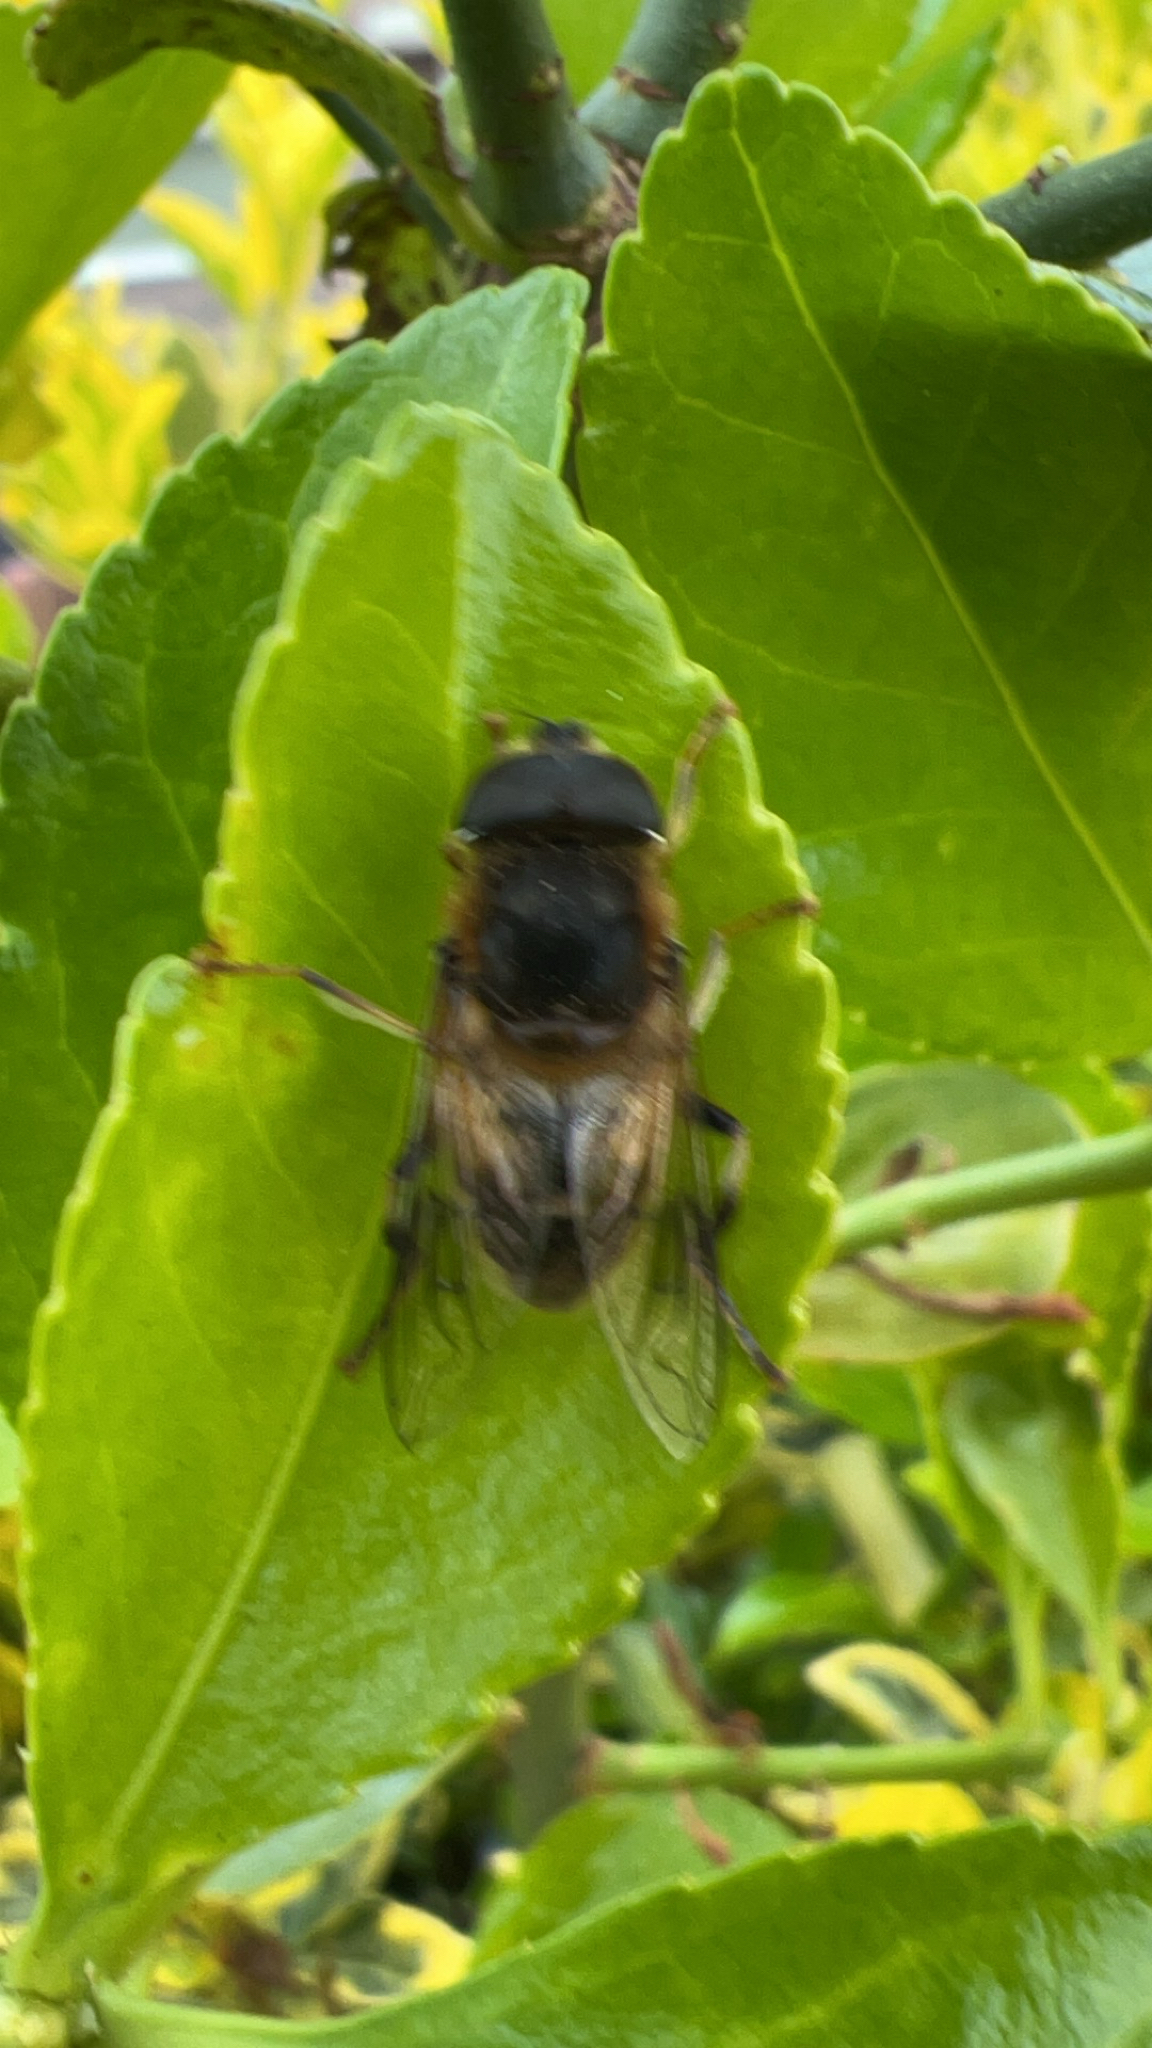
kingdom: Animalia
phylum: Arthropoda
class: Insecta
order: Diptera
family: Syrphidae
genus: Eristalis
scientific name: Eristalis pertinax
